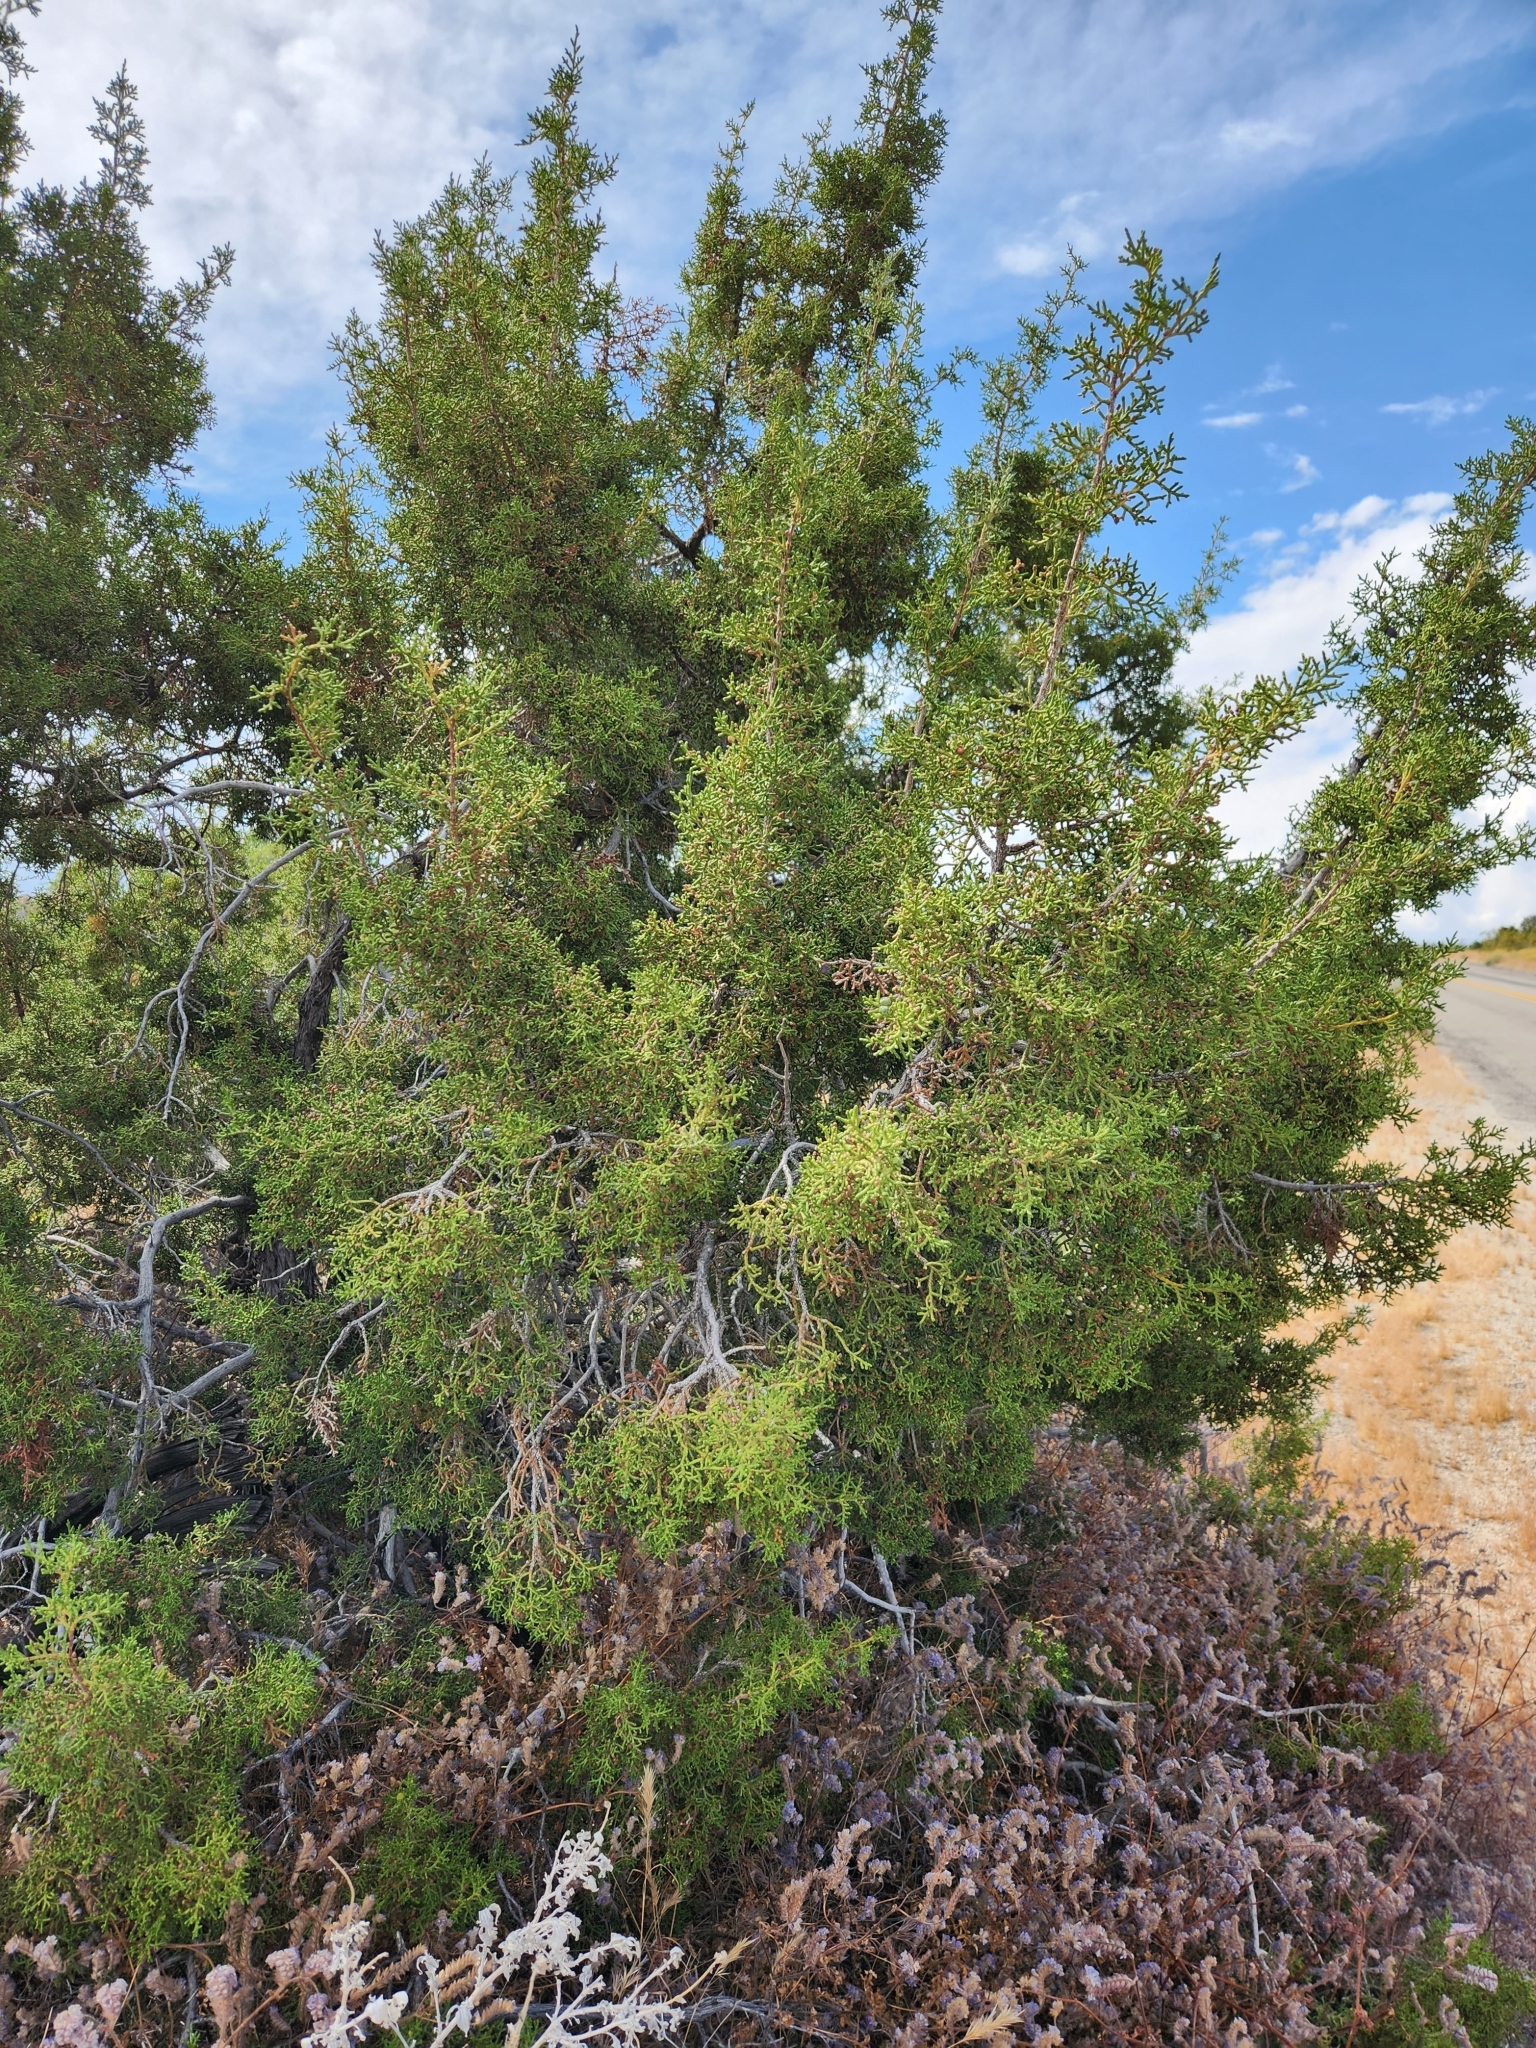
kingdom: Plantae
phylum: Tracheophyta
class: Pinopsida
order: Pinales
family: Cupressaceae
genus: Juniperus
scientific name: Juniperus californica
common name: California juniper
